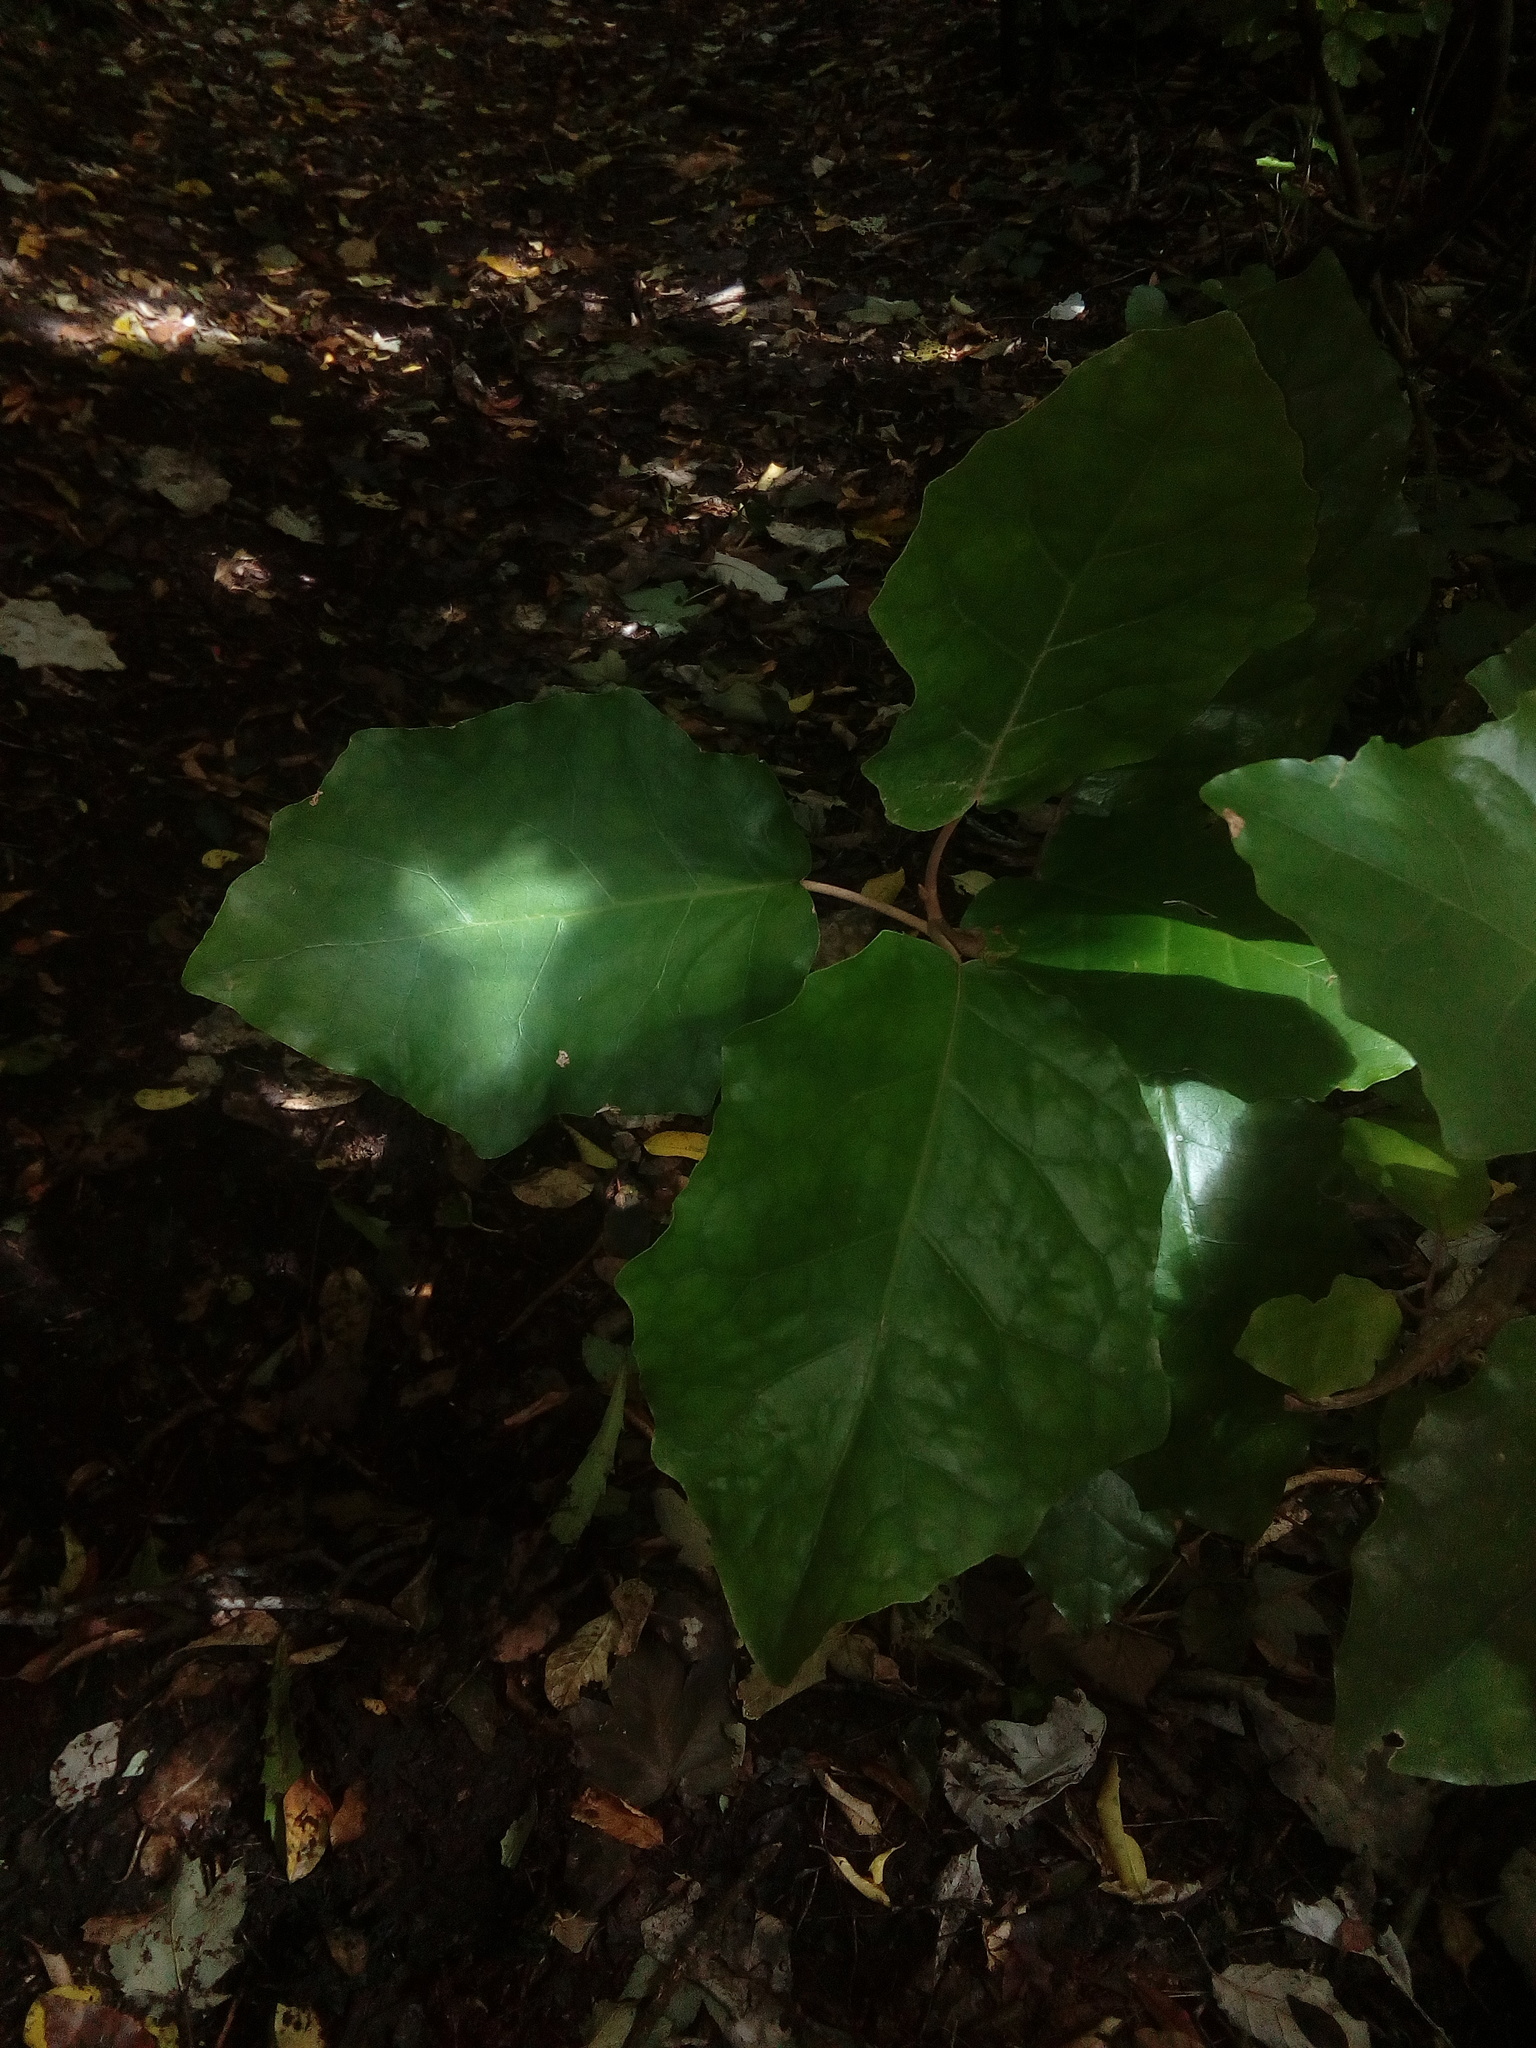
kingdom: Plantae
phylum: Tracheophyta
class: Magnoliopsida
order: Asterales
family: Asteraceae
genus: Brachyglottis
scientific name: Brachyglottis repanda
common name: Hedge ragwort
